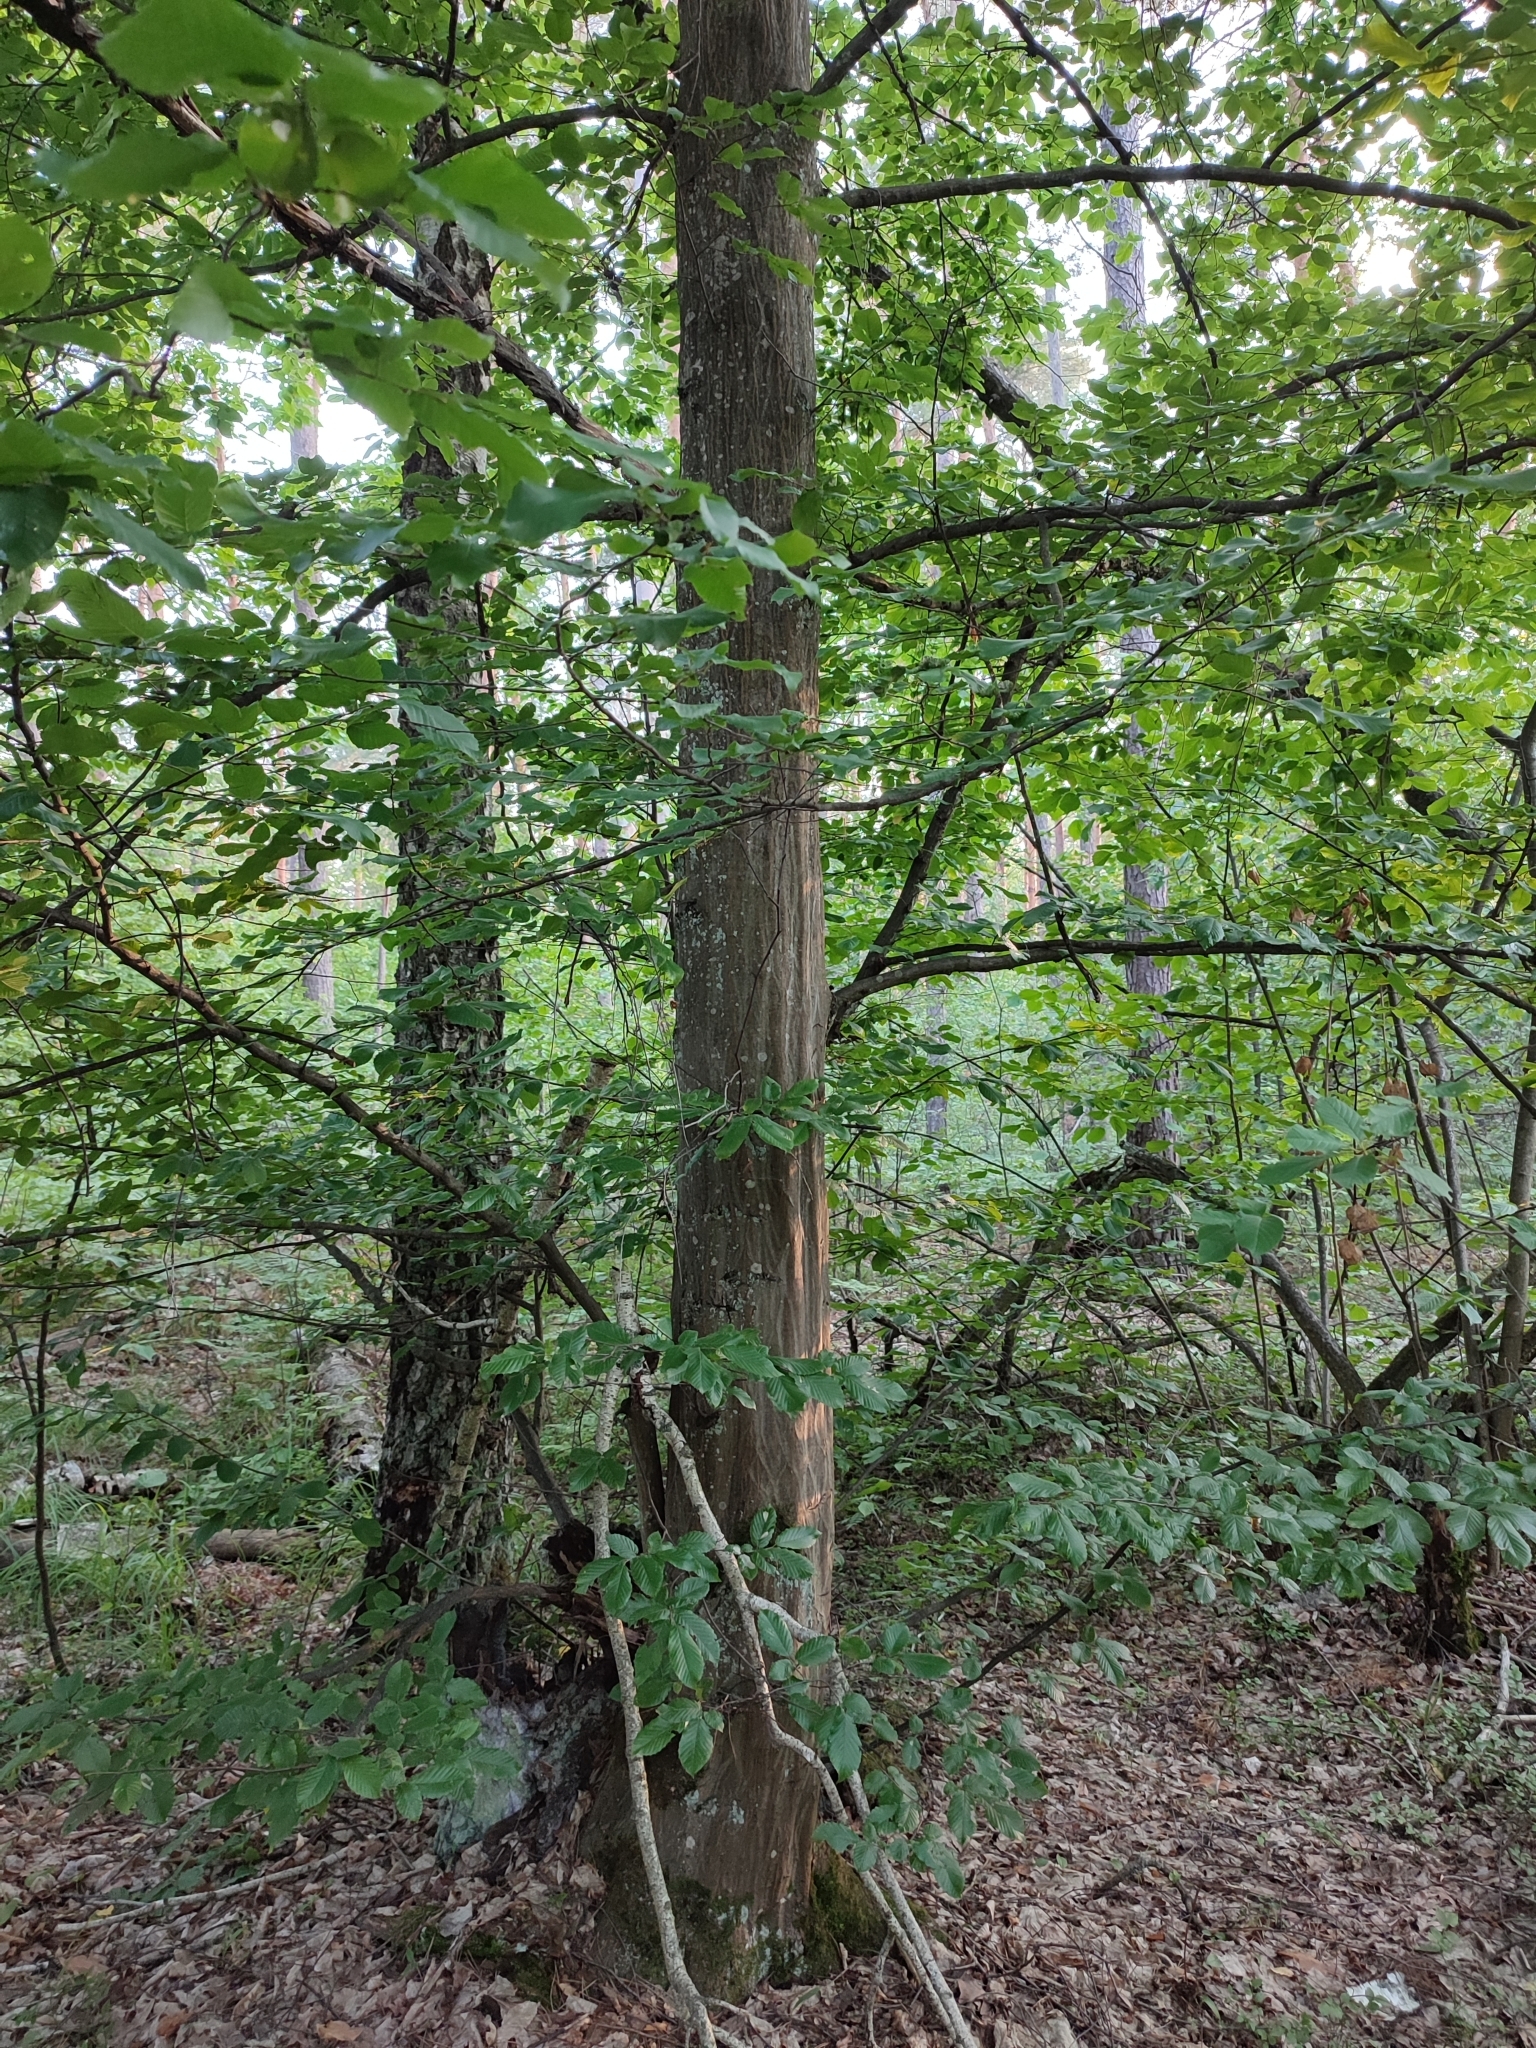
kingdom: Plantae
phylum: Tracheophyta
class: Magnoliopsida
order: Fagales
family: Betulaceae
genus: Carpinus
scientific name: Carpinus betulus
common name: Hornbeam
